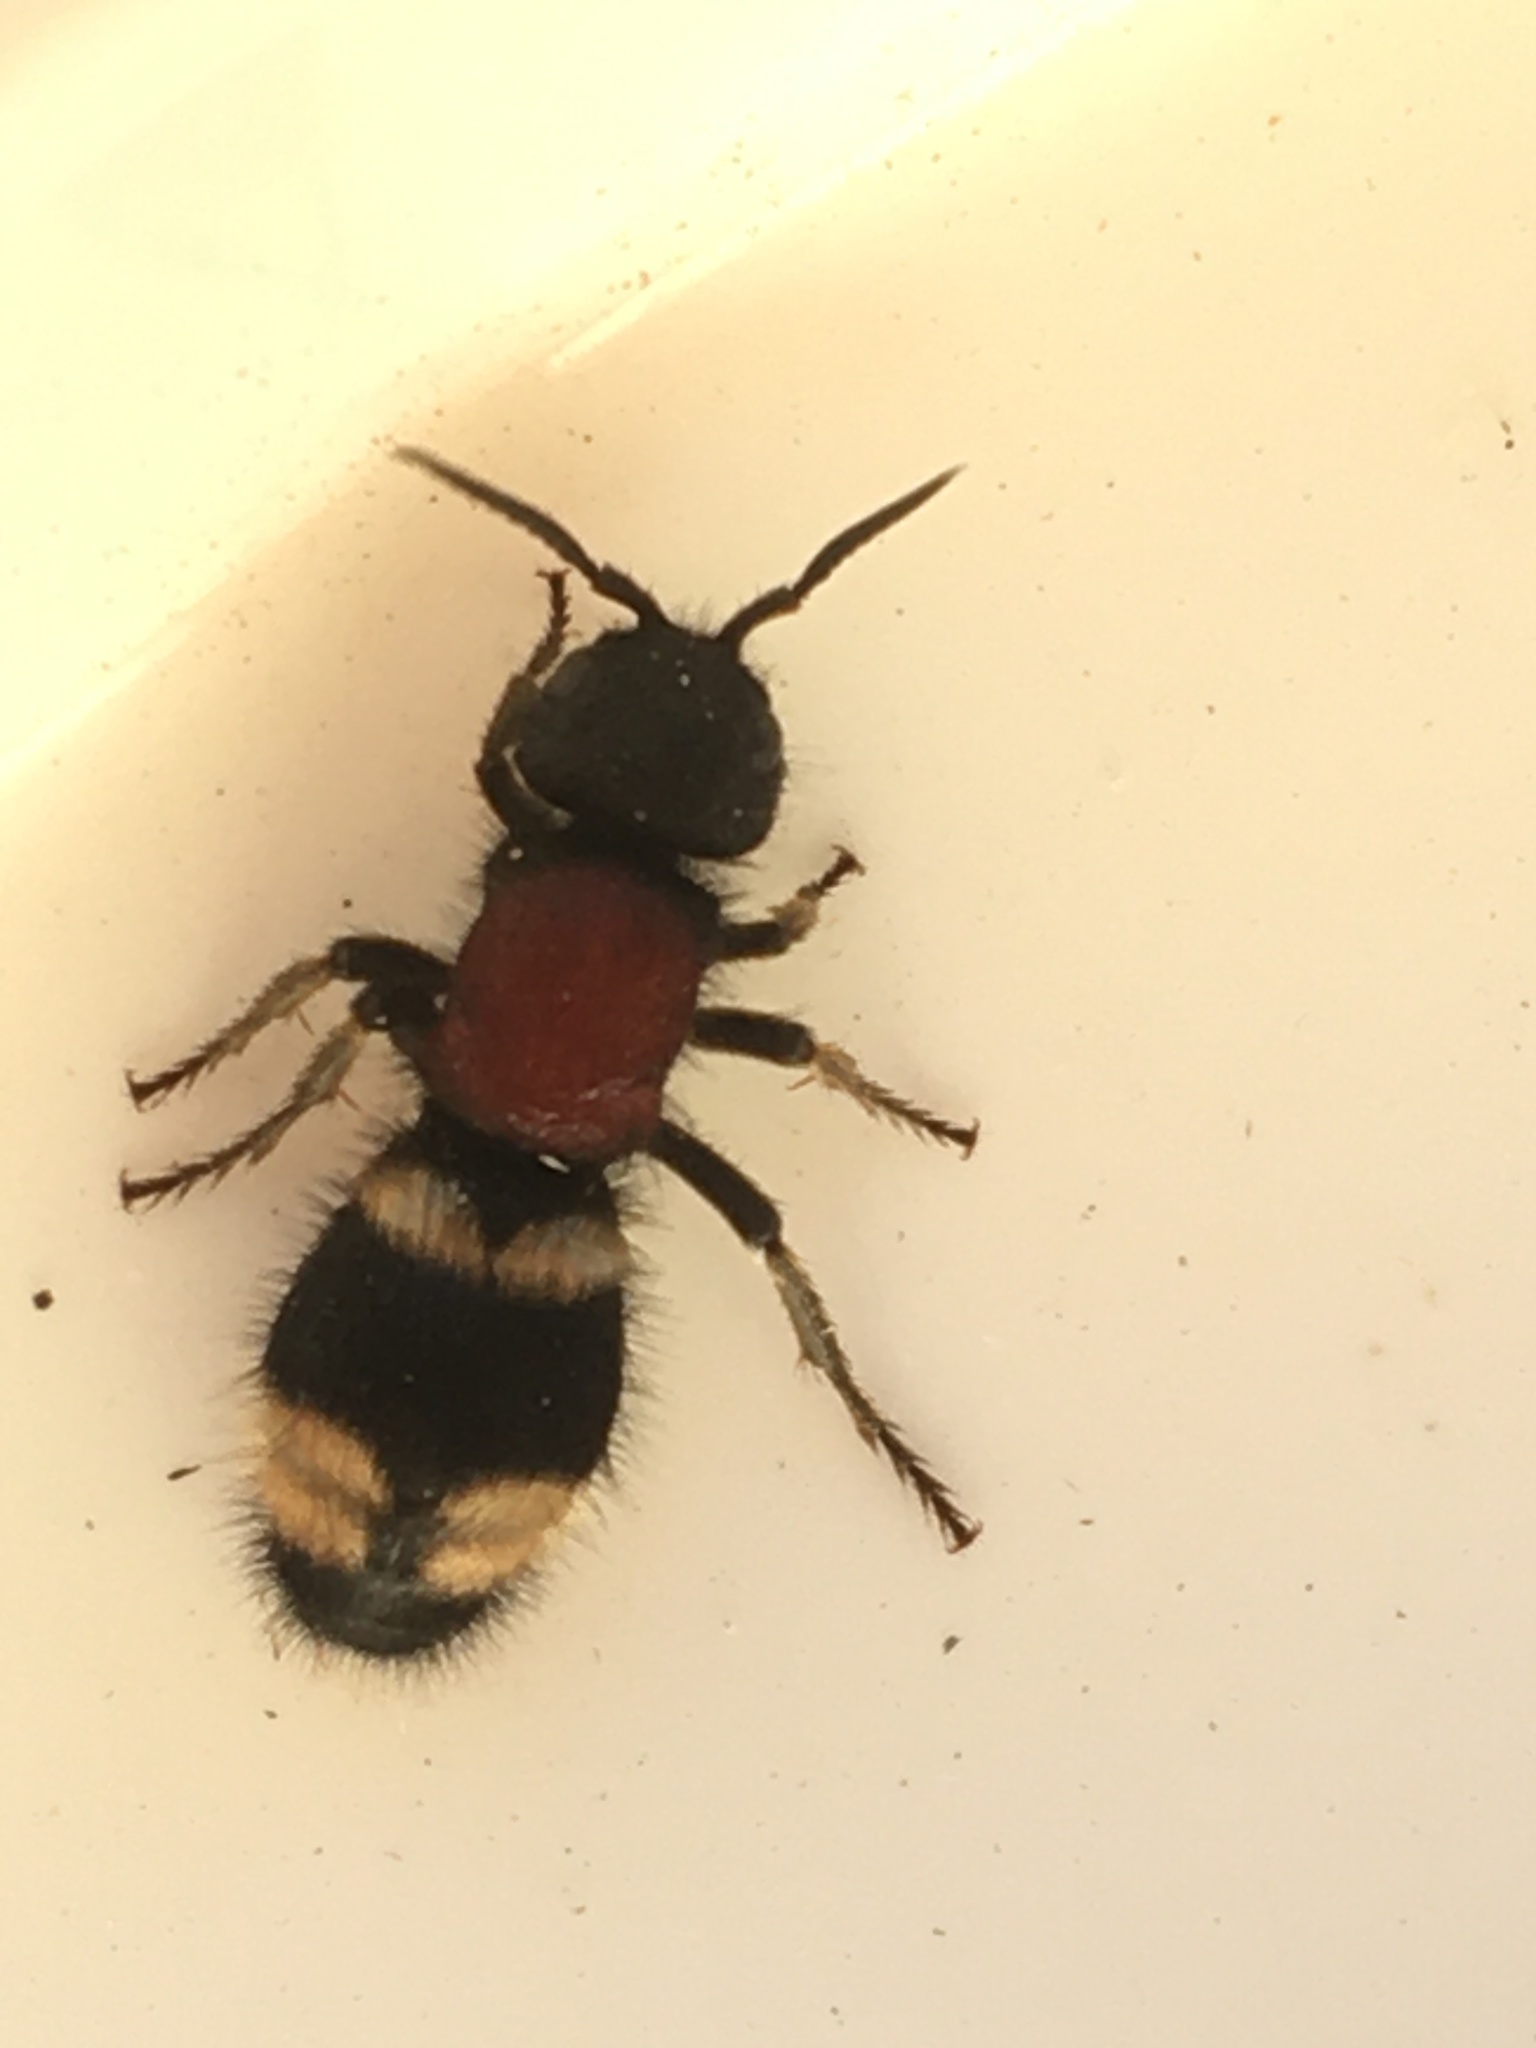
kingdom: Animalia
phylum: Arthropoda
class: Insecta
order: Hymenoptera
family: Mutillidae
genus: Mutilla
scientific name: Mutilla europaea
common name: Large velvet ant
